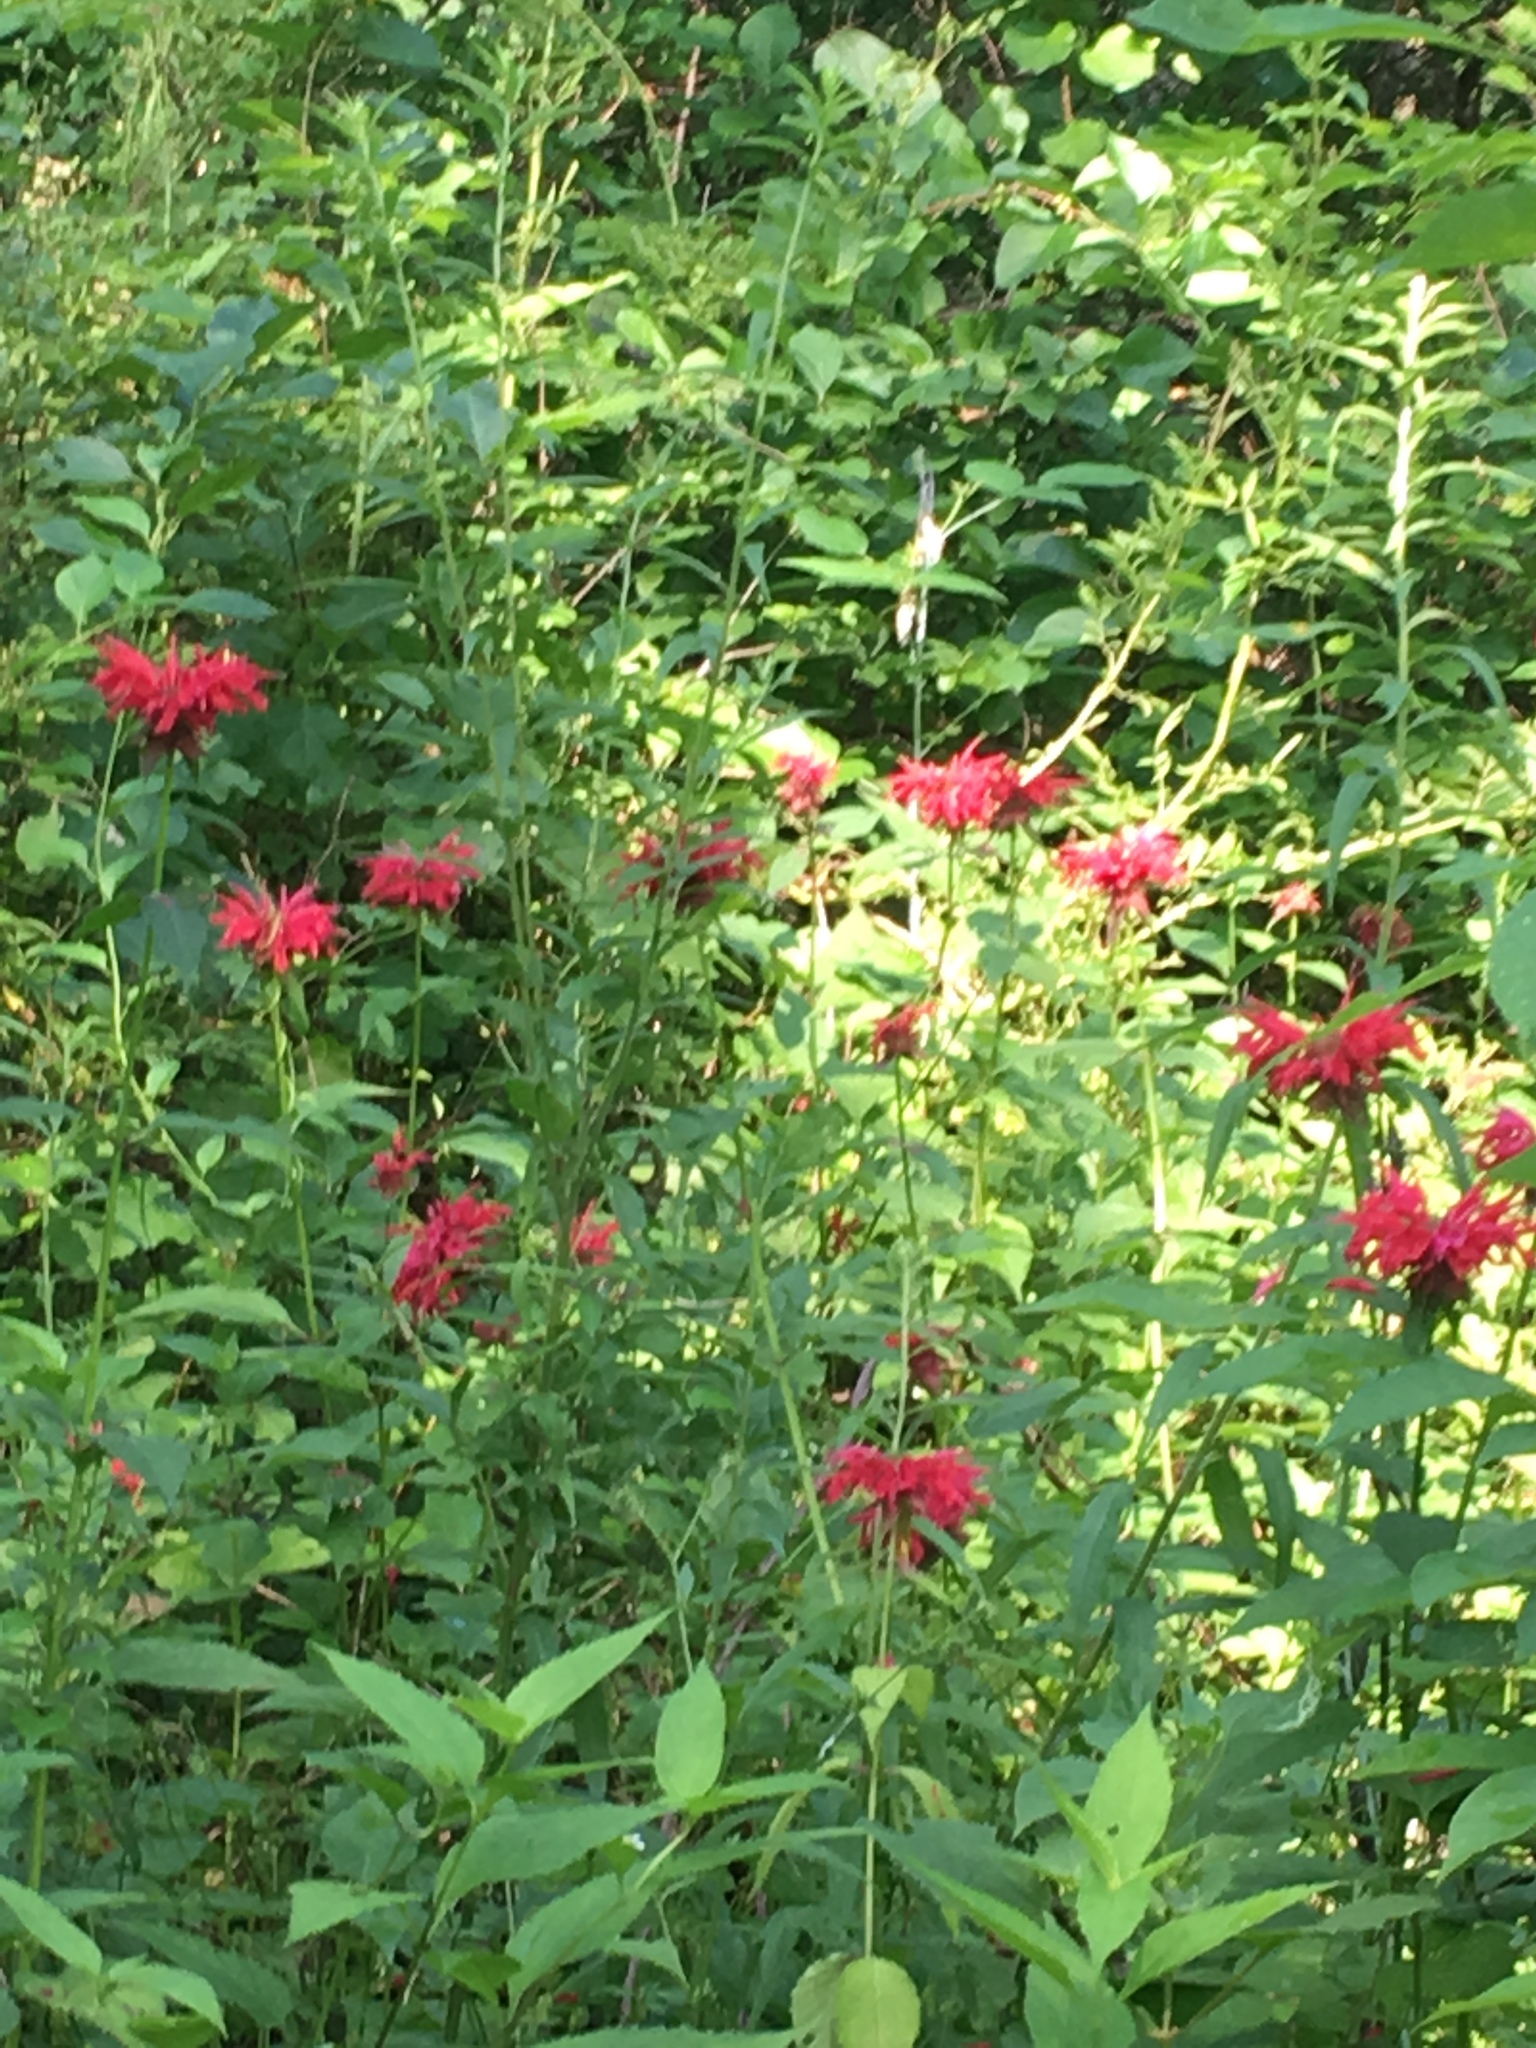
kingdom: Plantae
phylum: Tracheophyta
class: Magnoliopsida
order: Lamiales
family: Lamiaceae
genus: Monarda
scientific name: Monarda didyma
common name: Beebalm
